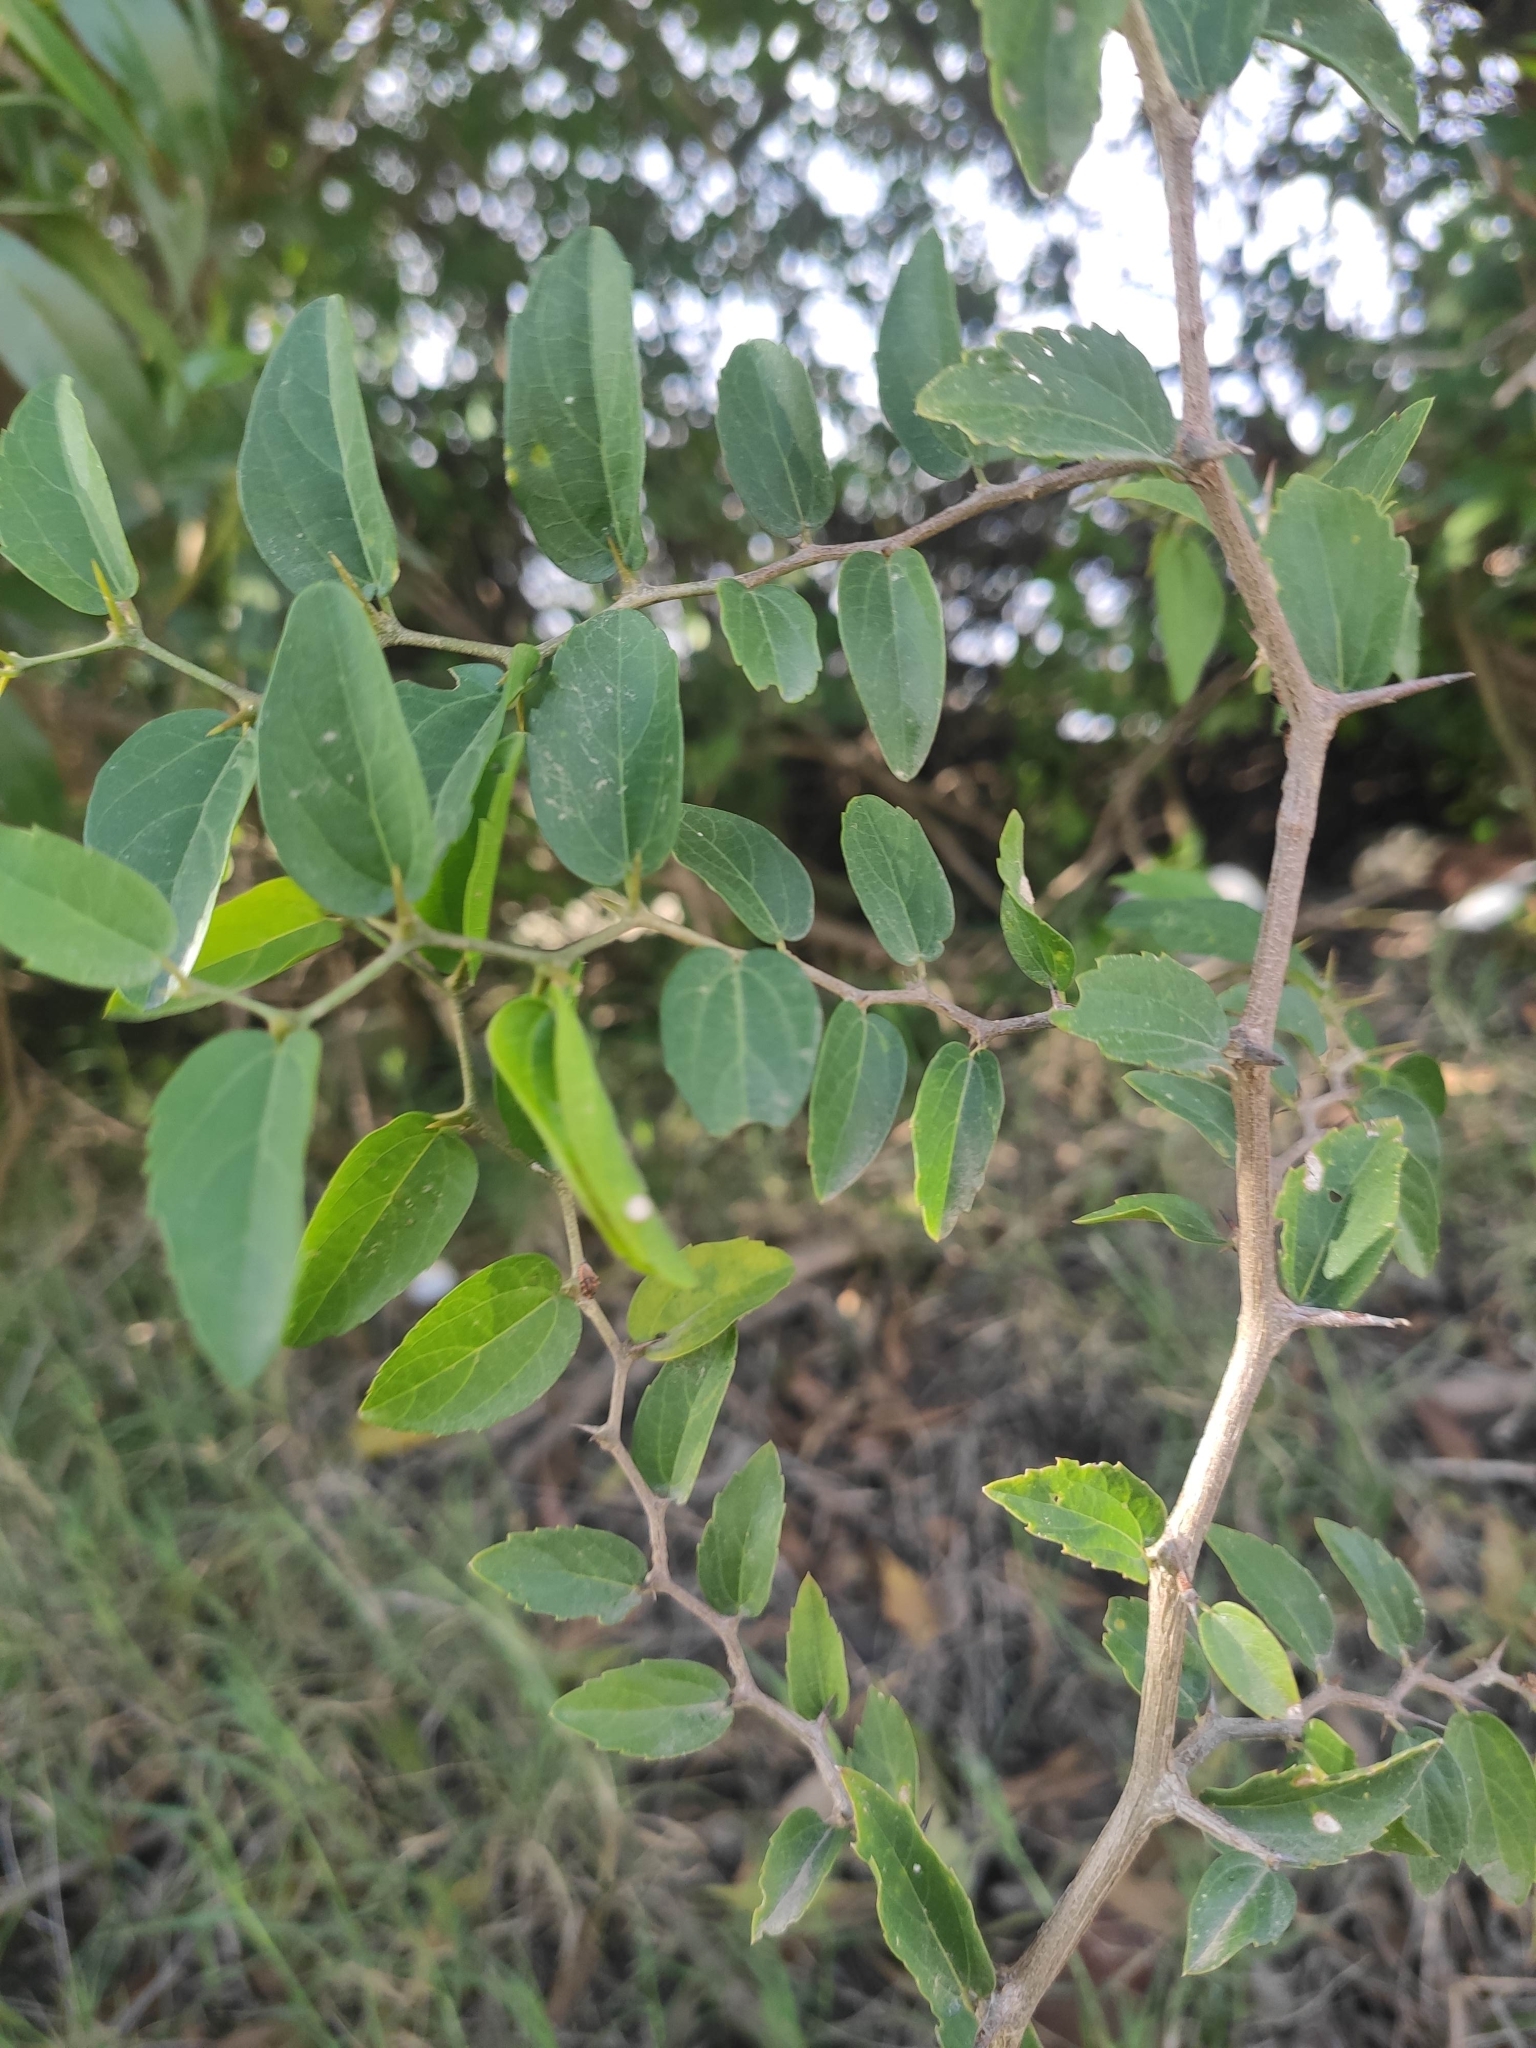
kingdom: Plantae
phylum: Tracheophyta
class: Magnoliopsida
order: Rosales
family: Cannabaceae
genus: Celtis
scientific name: Celtis tala
